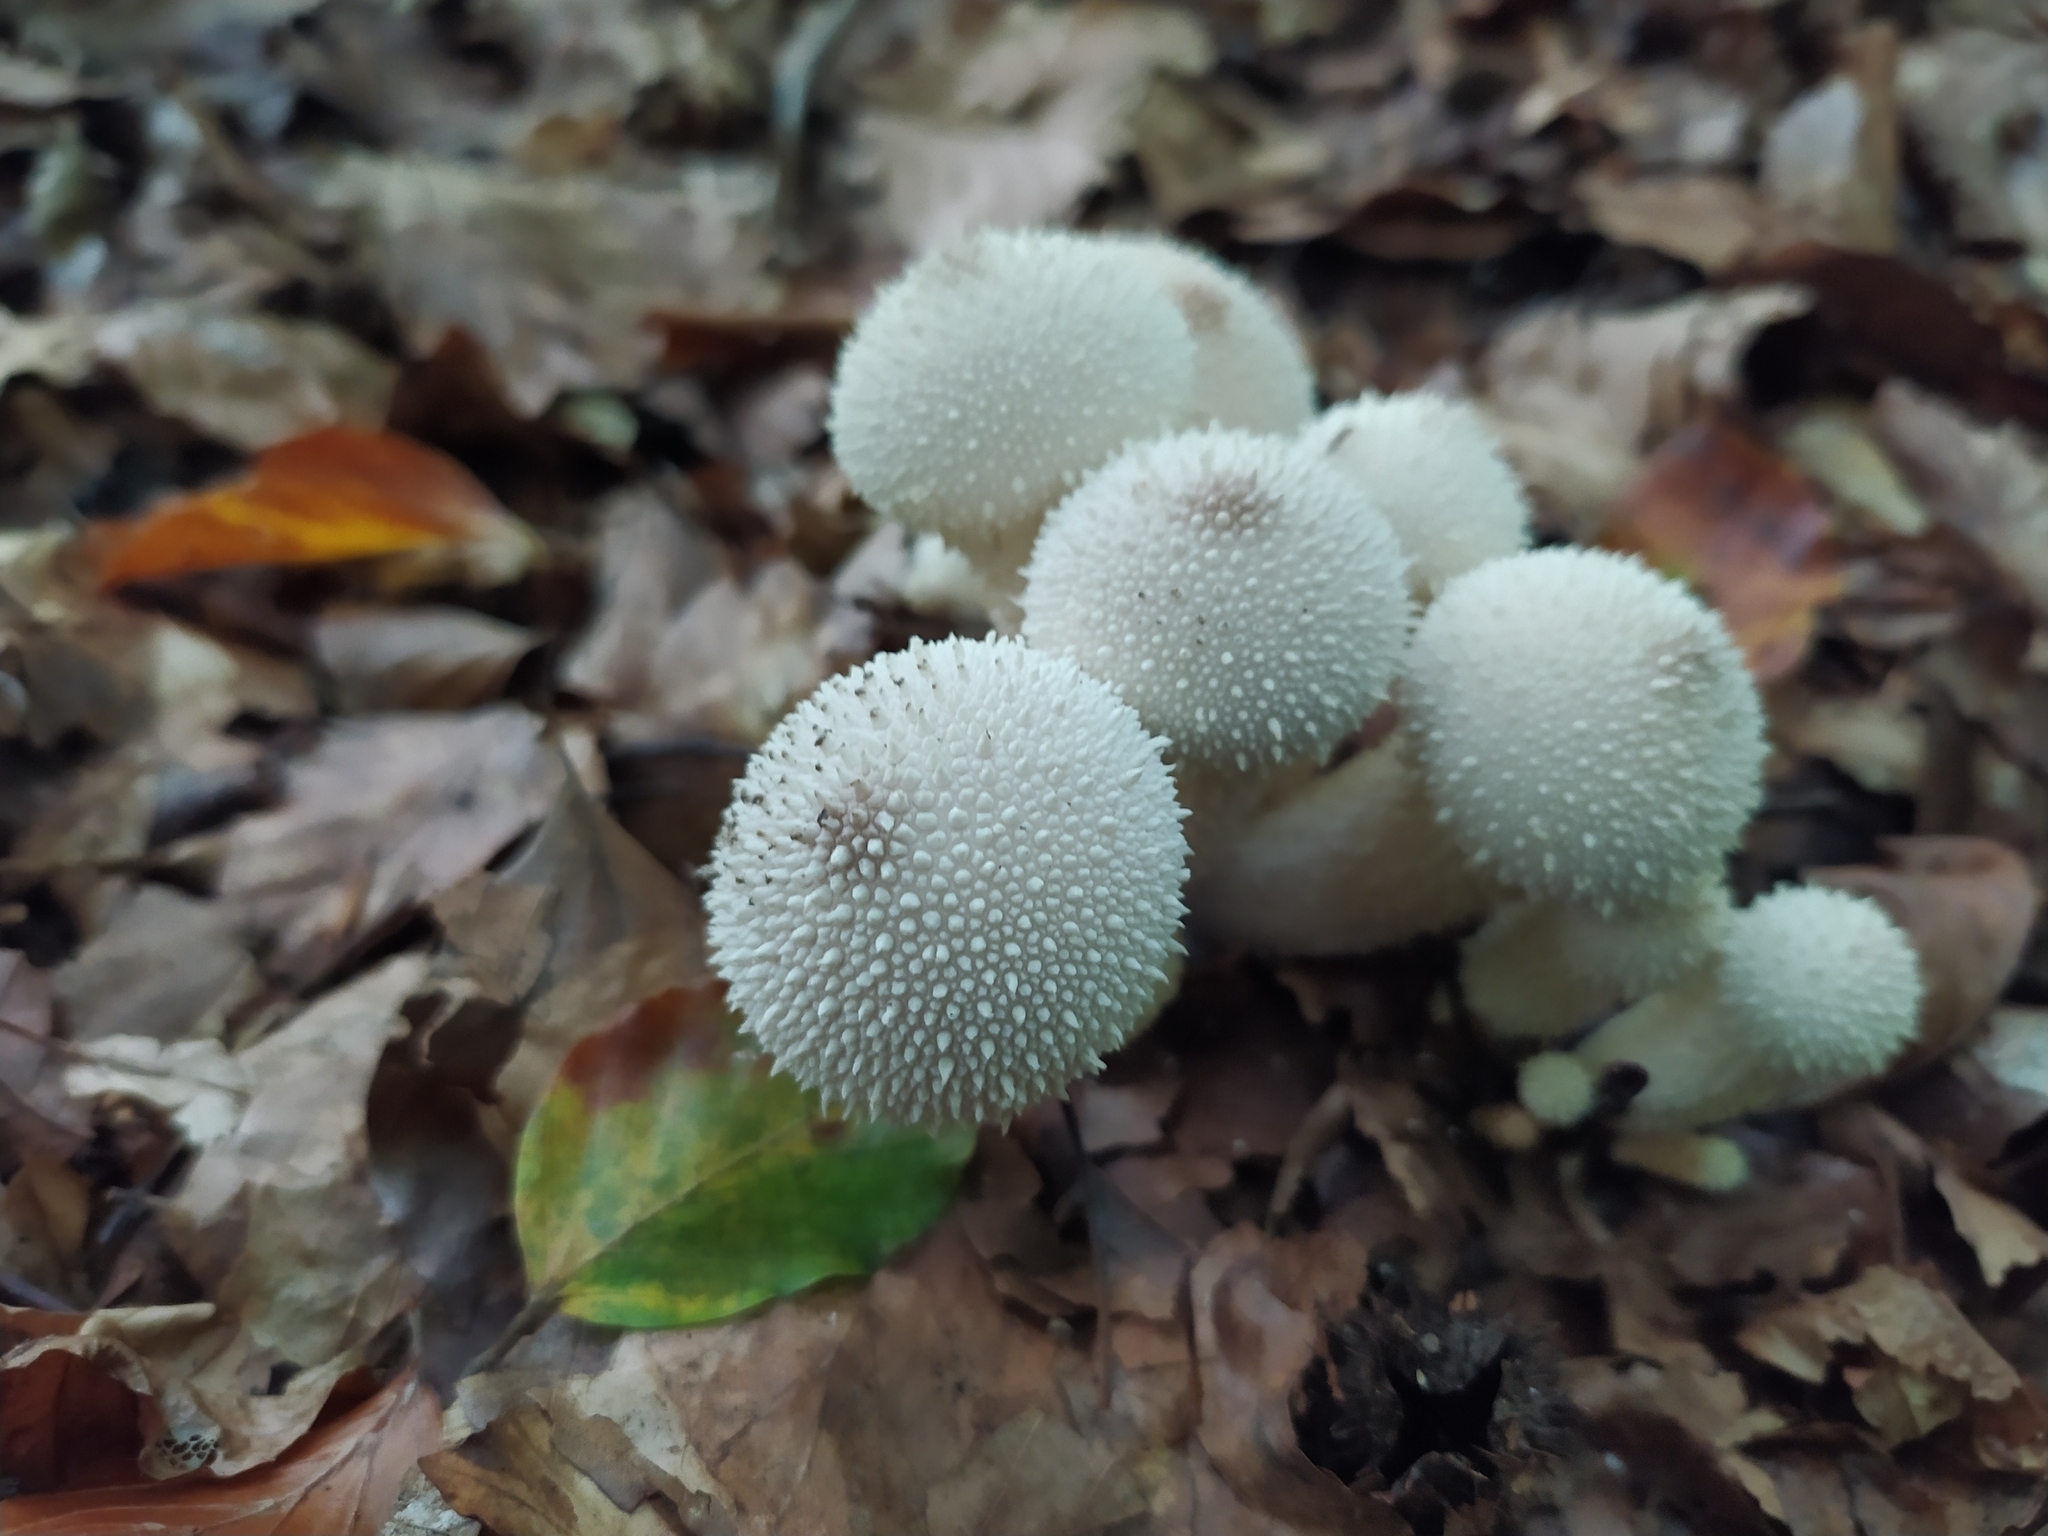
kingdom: Fungi
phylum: Basidiomycota
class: Agaricomycetes
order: Agaricales
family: Lycoperdaceae
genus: Lycoperdon
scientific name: Lycoperdon perlatum
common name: Common puffball
